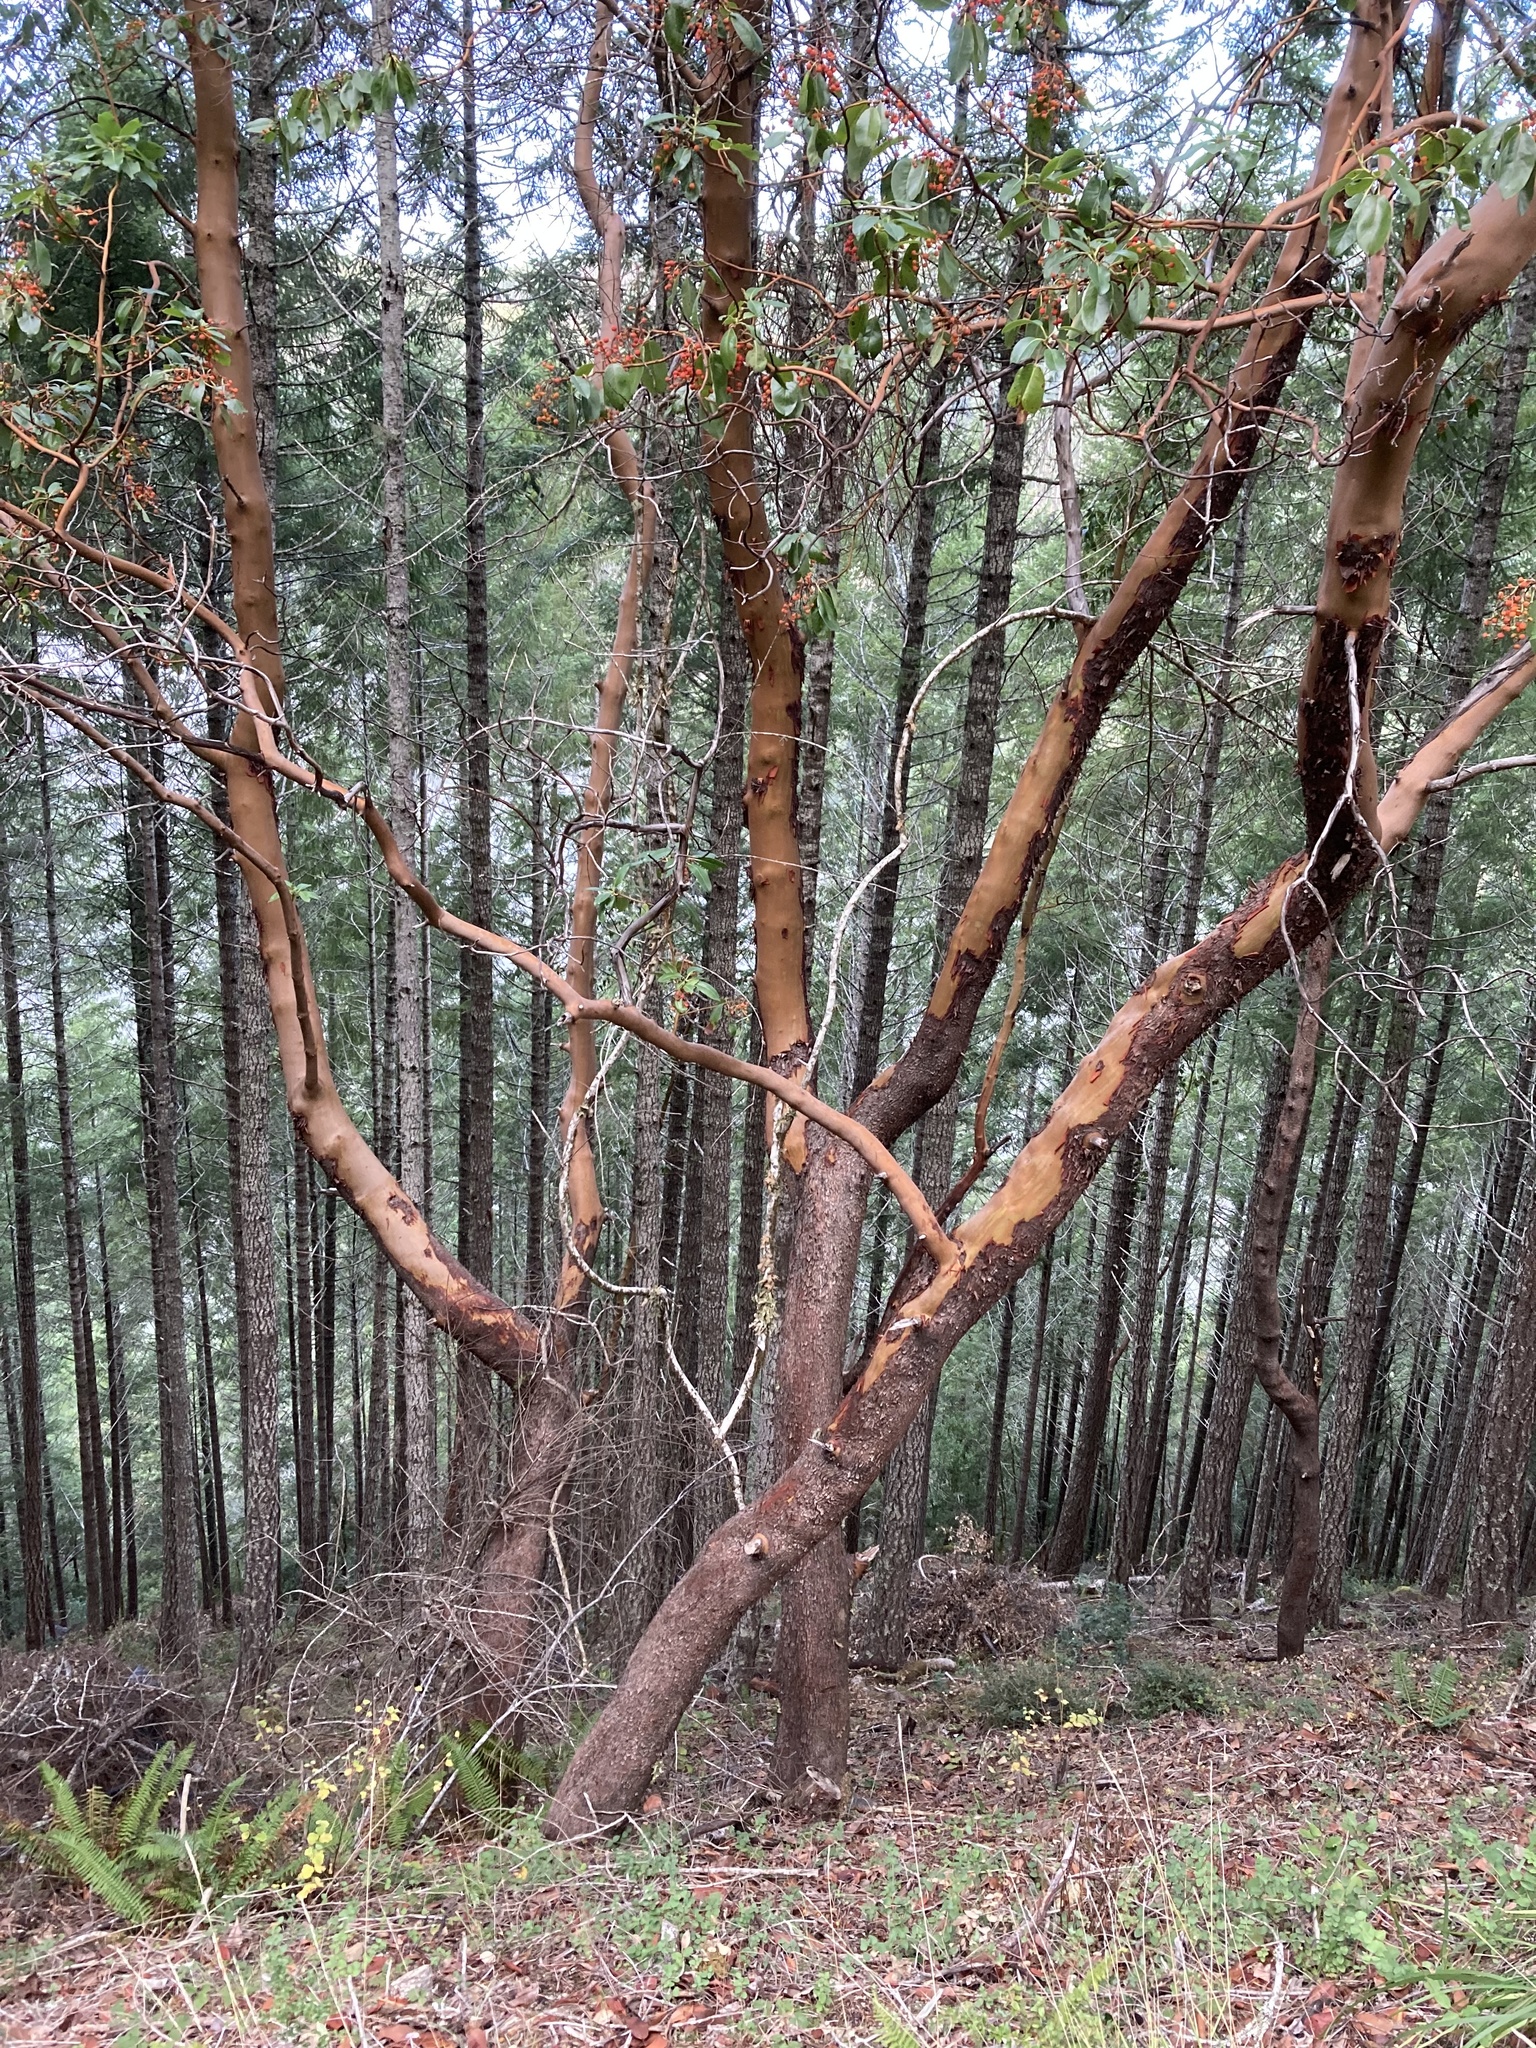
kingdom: Plantae
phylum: Tracheophyta
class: Magnoliopsida
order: Ericales
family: Ericaceae
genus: Arbutus
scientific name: Arbutus menziesii
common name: Pacific madrone
